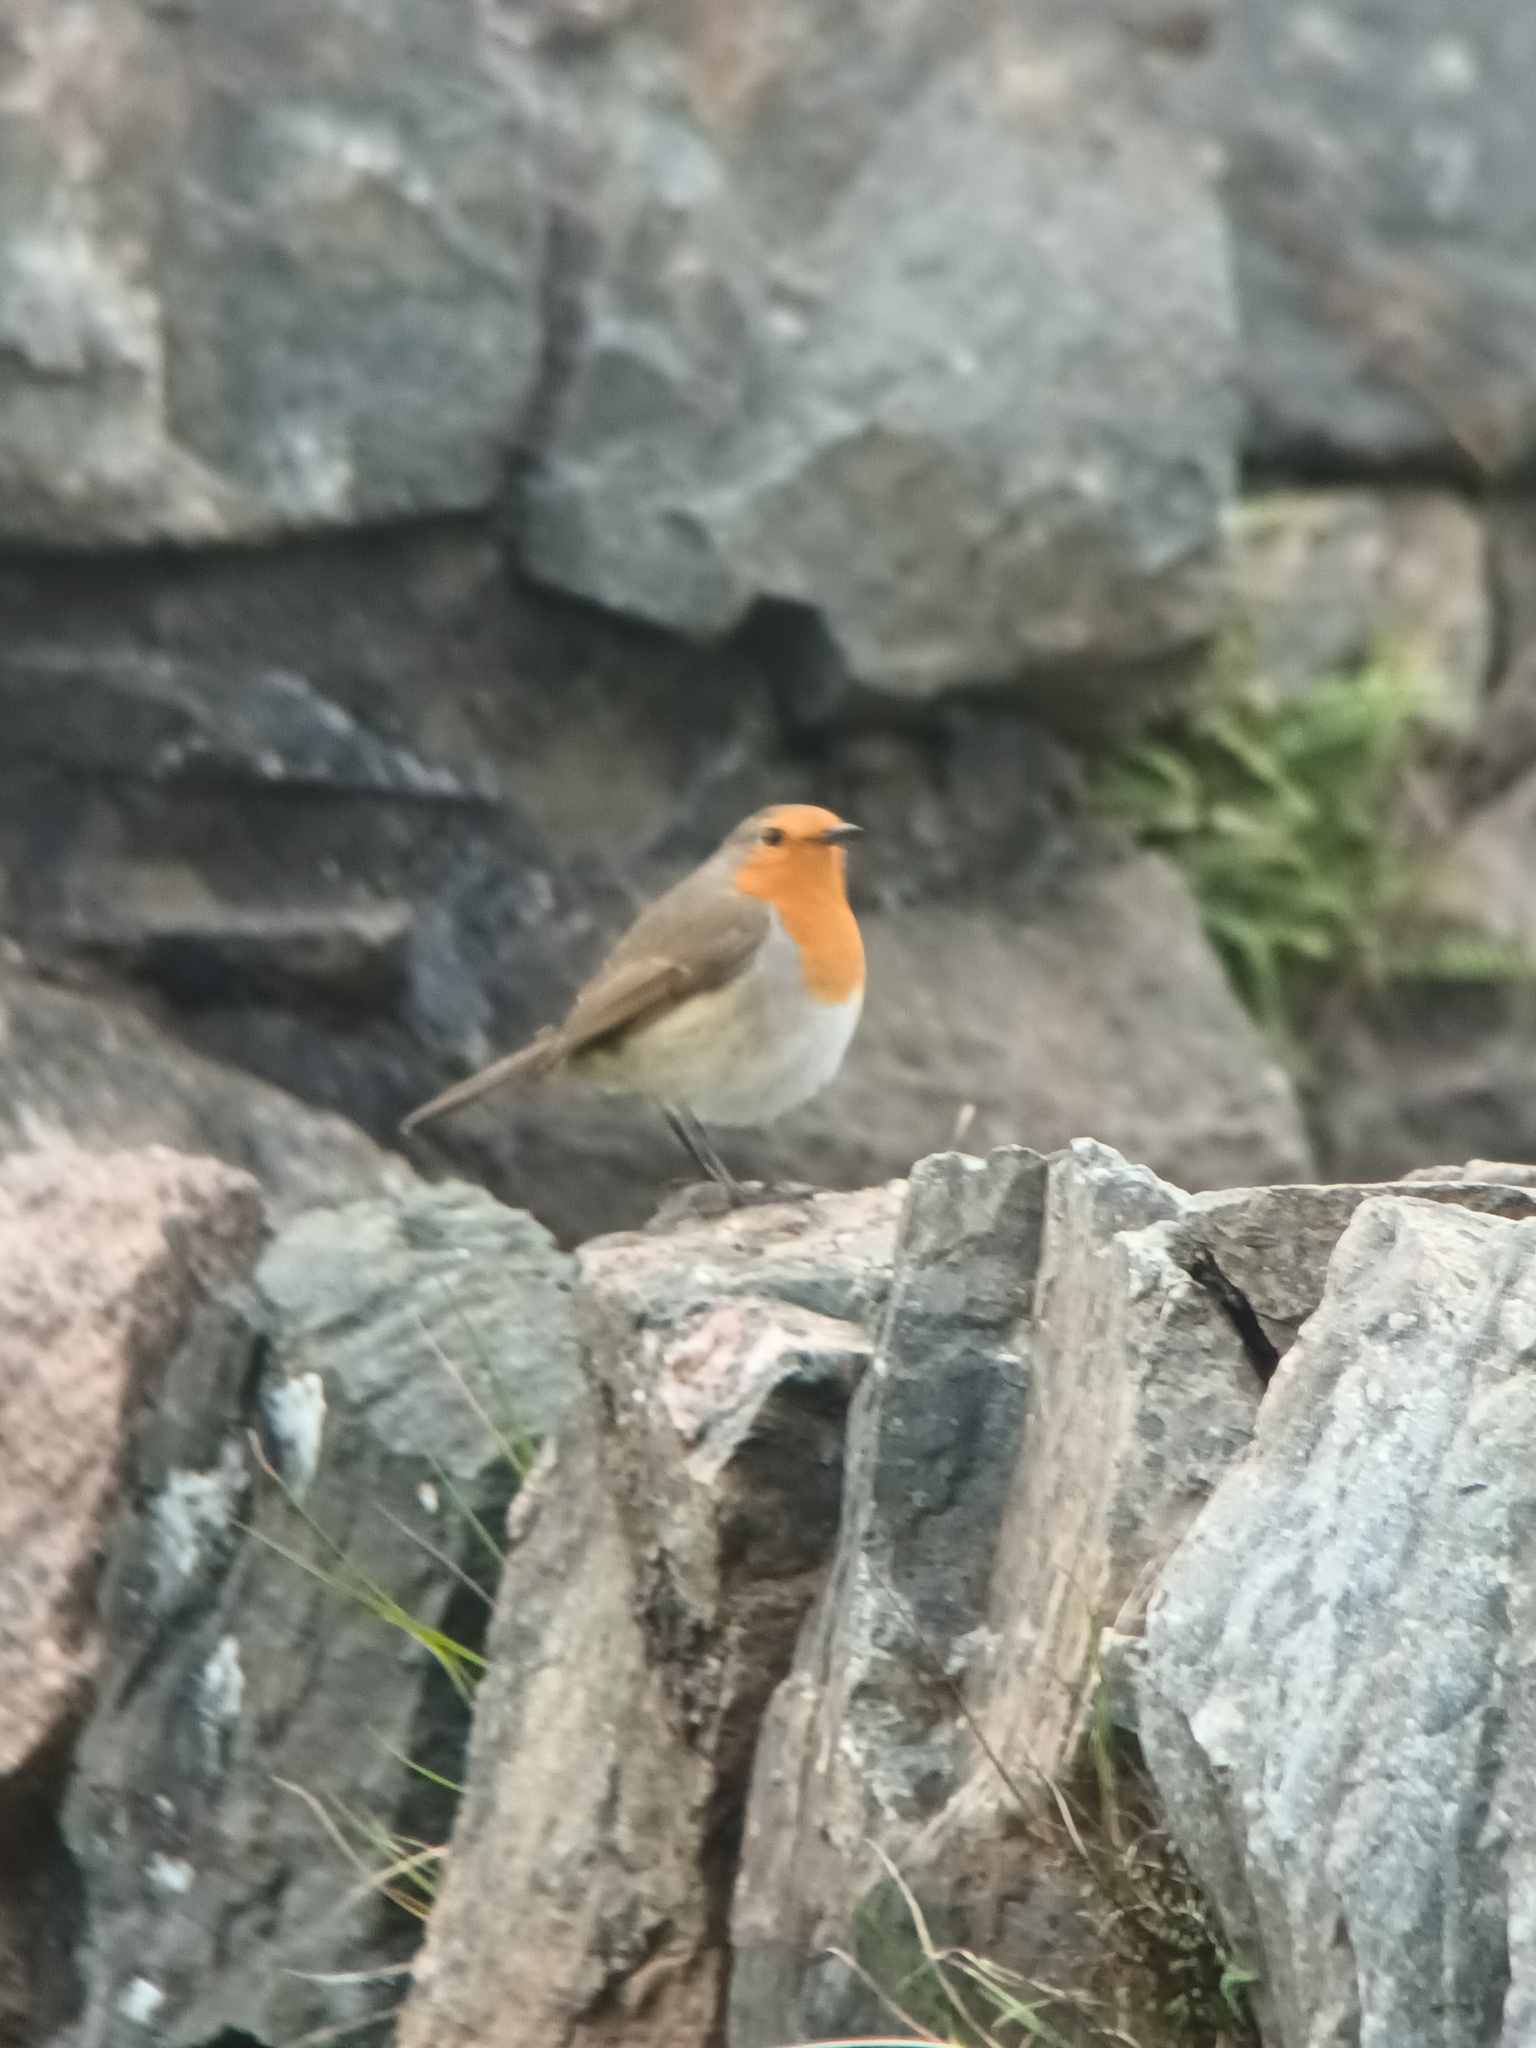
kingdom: Animalia
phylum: Chordata
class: Aves
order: Passeriformes
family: Muscicapidae
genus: Erithacus
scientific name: Erithacus rubecula
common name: European robin
